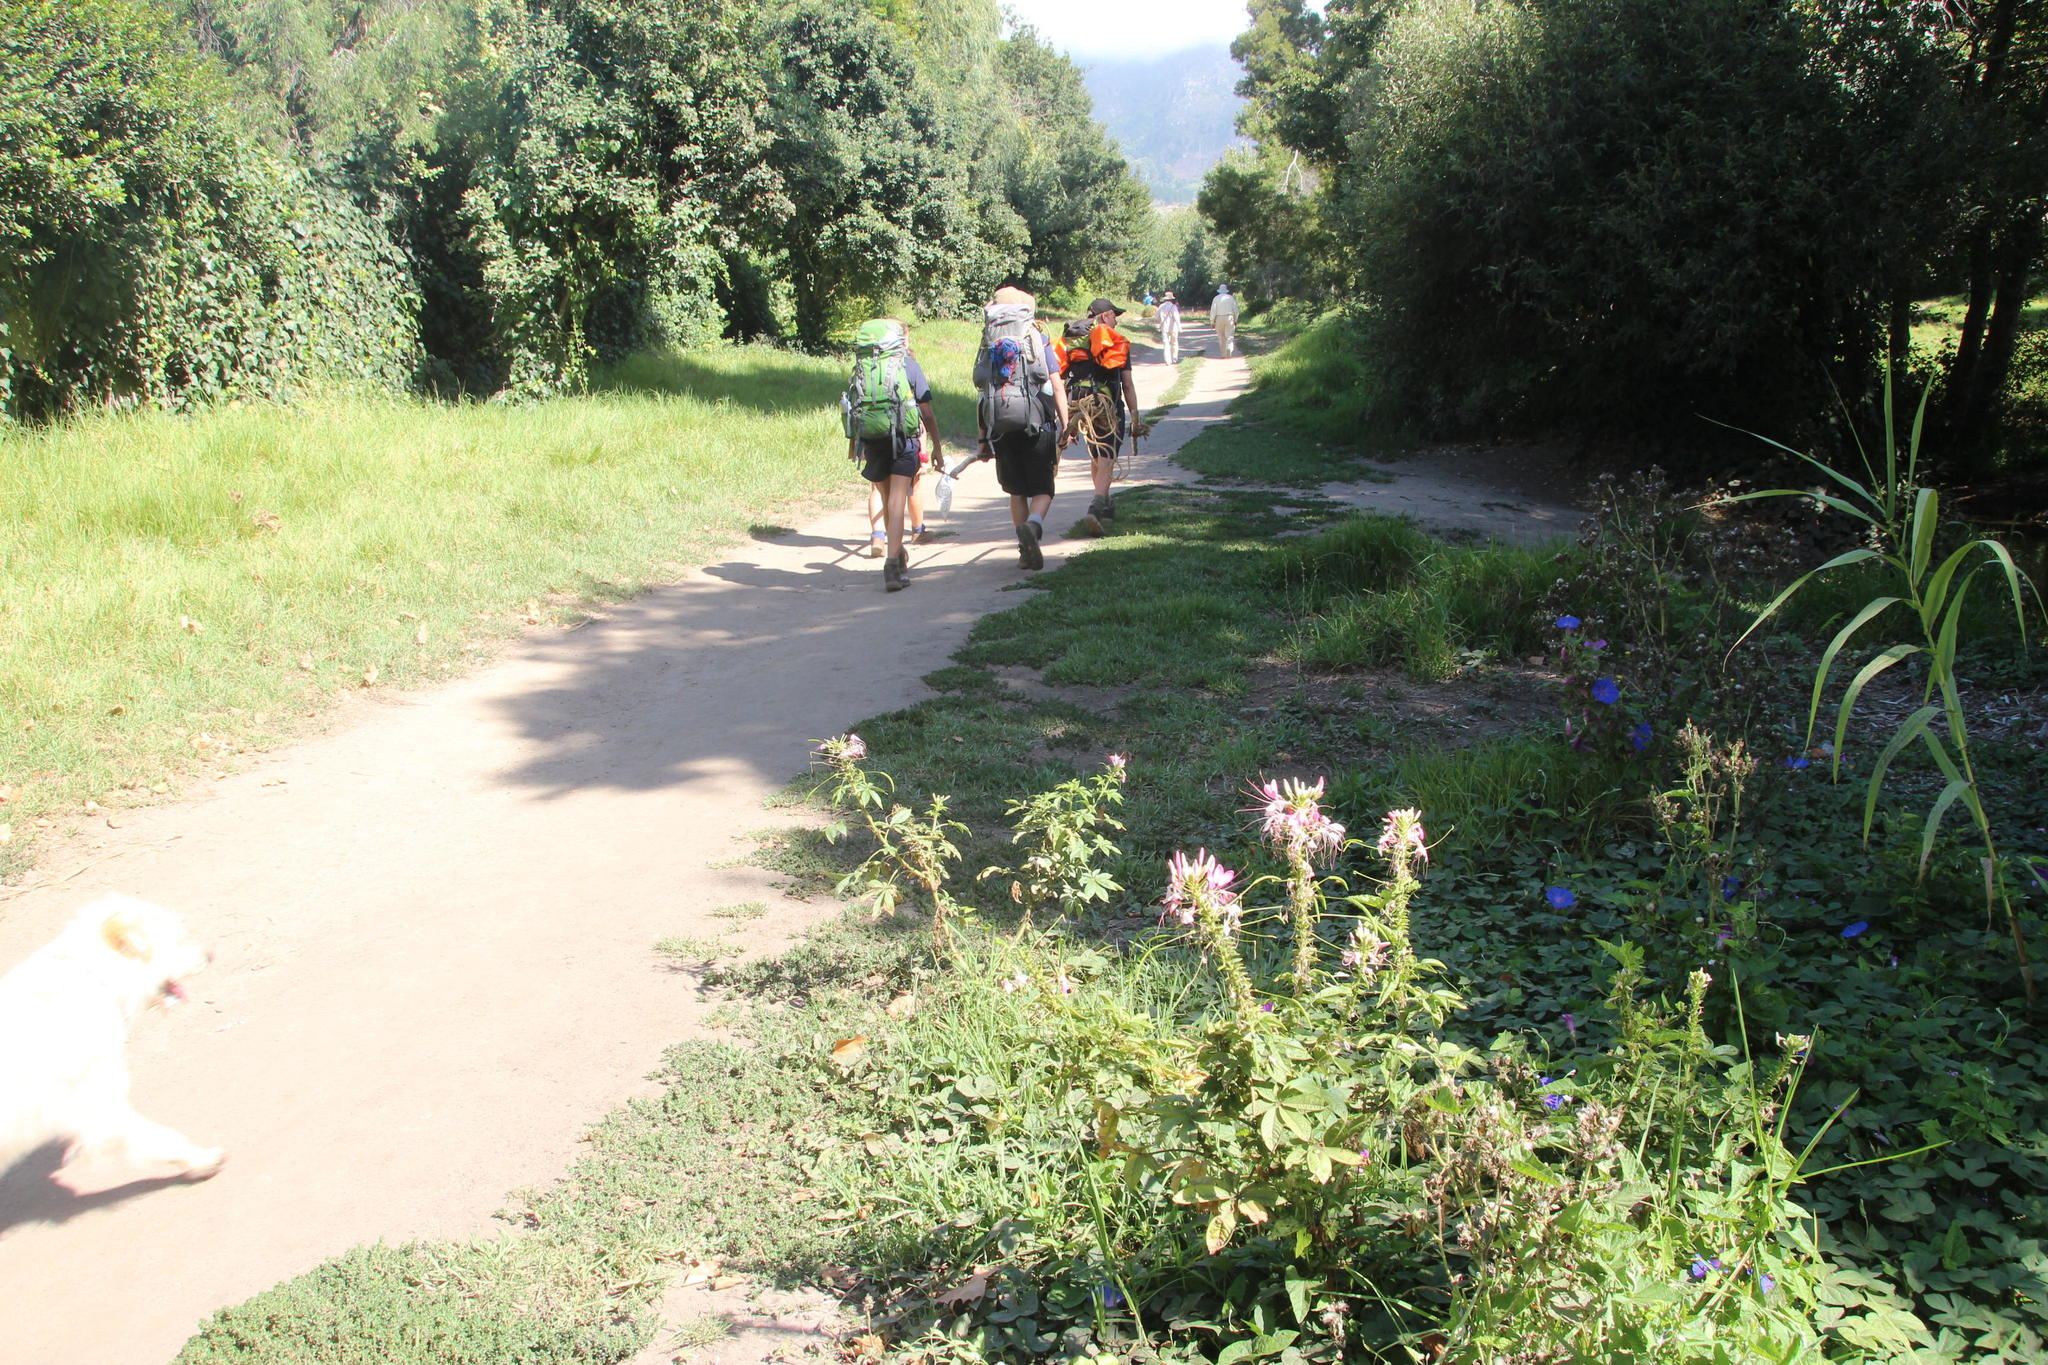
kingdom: Plantae
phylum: Tracheophyta
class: Magnoliopsida
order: Brassicales
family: Cleomaceae
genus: Tarenaya
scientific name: Tarenaya houtteana
